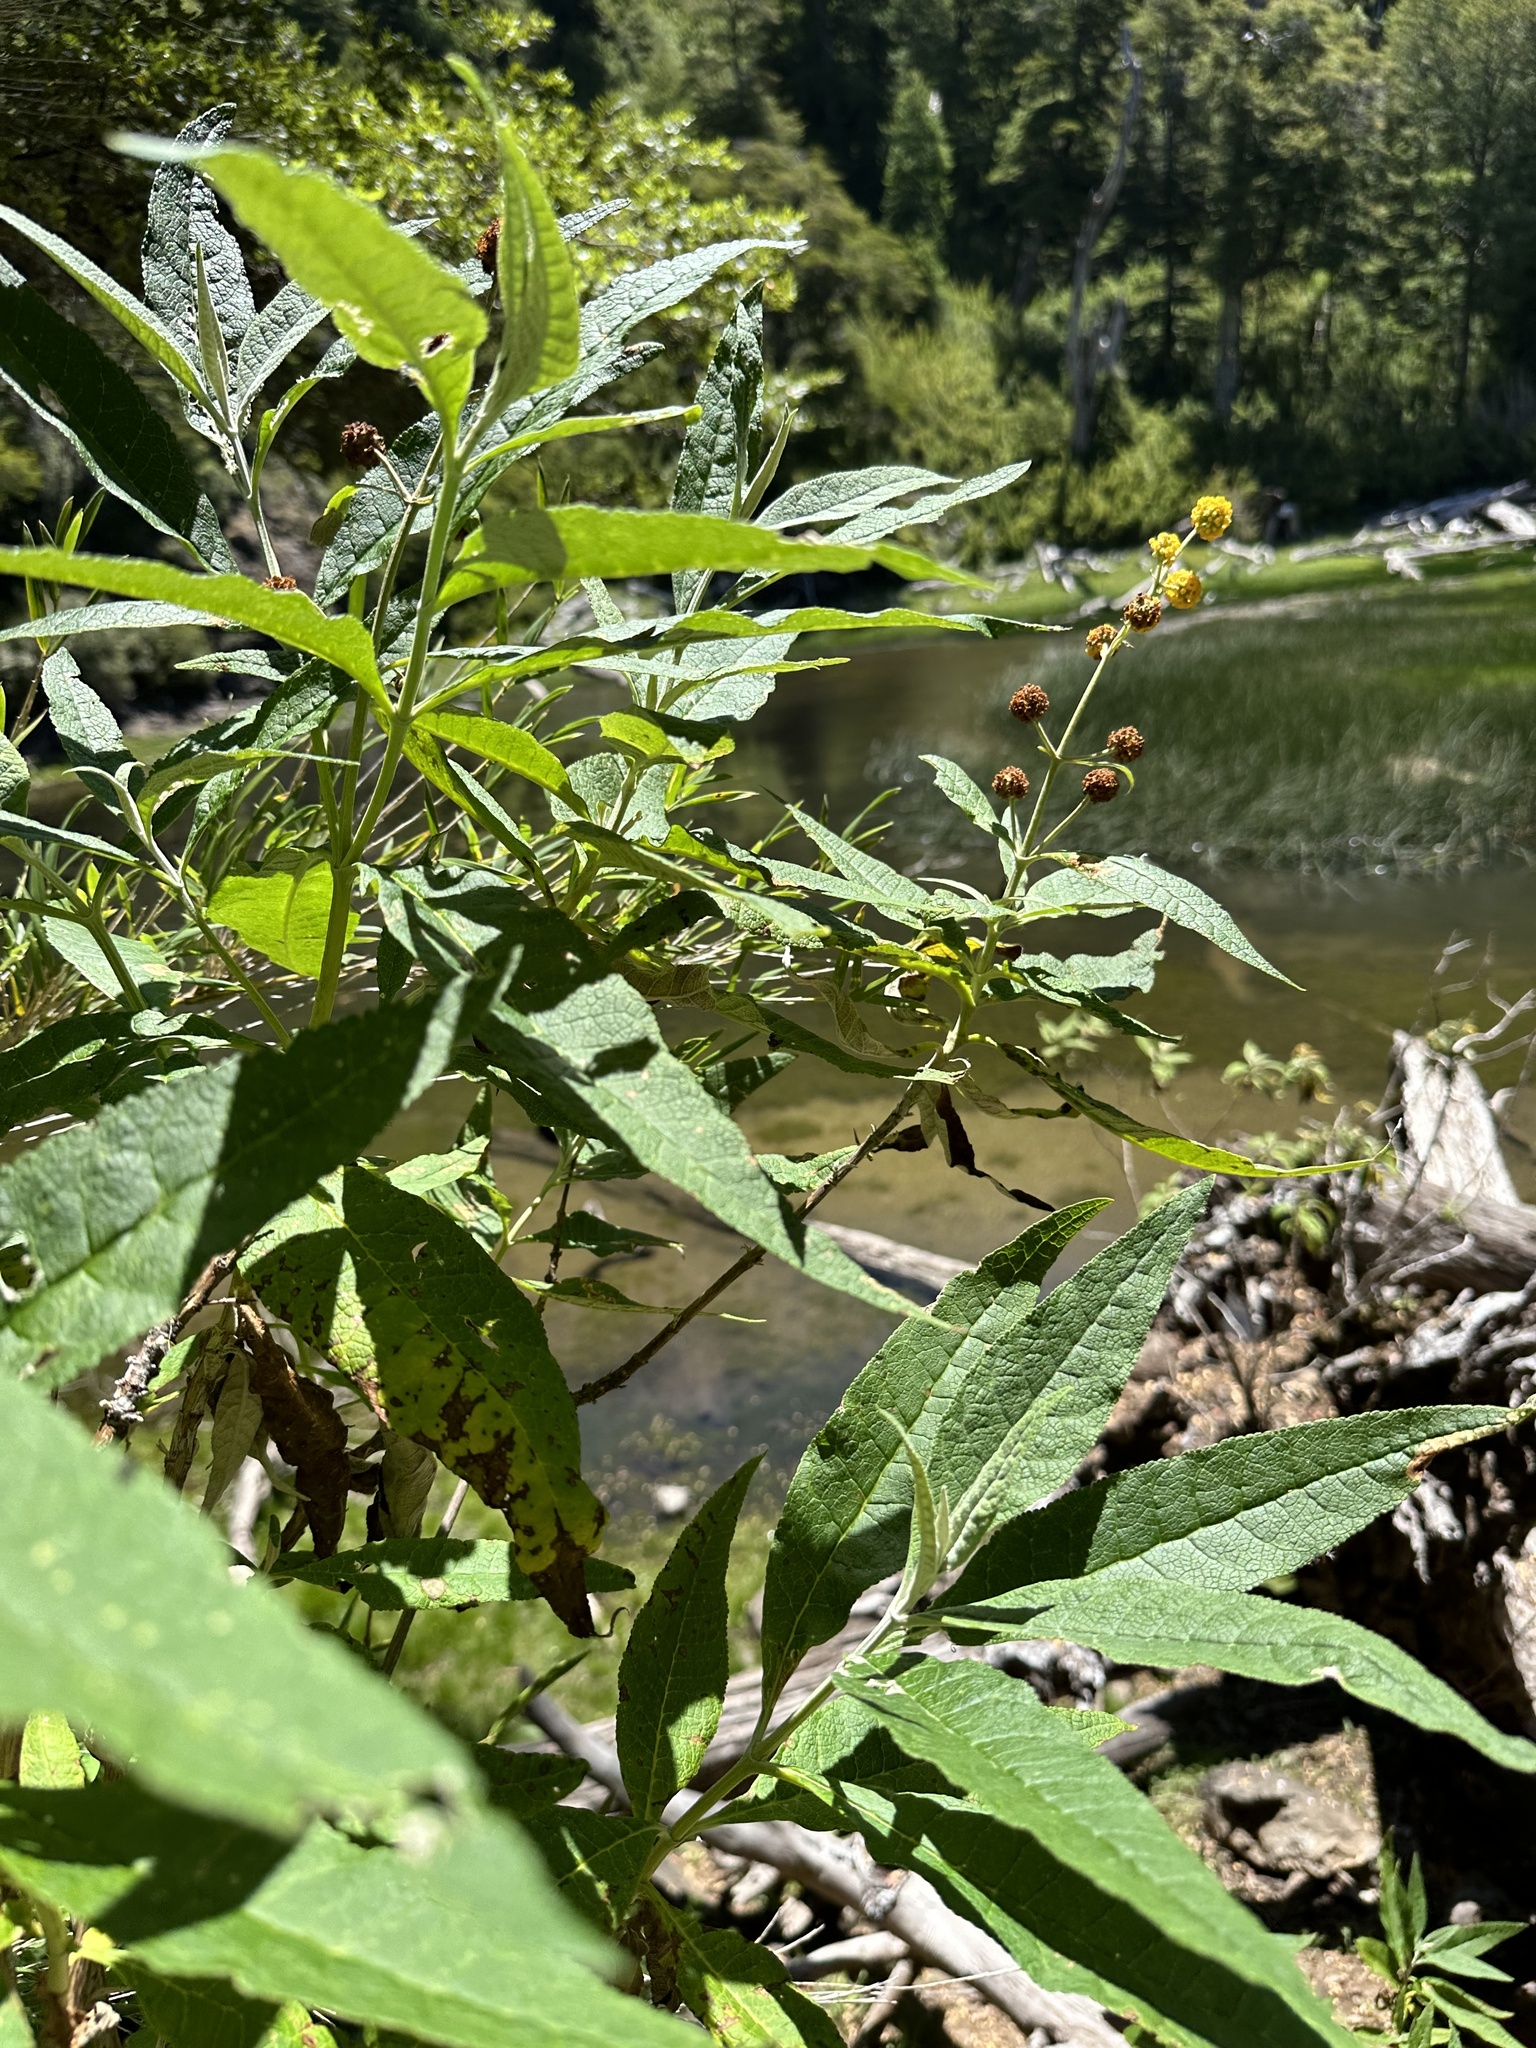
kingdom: Plantae
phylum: Tracheophyta
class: Magnoliopsida
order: Lamiales
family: Scrophulariaceae
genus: Buddleja
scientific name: Buddleja globosa
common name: Orange-ball-tree
